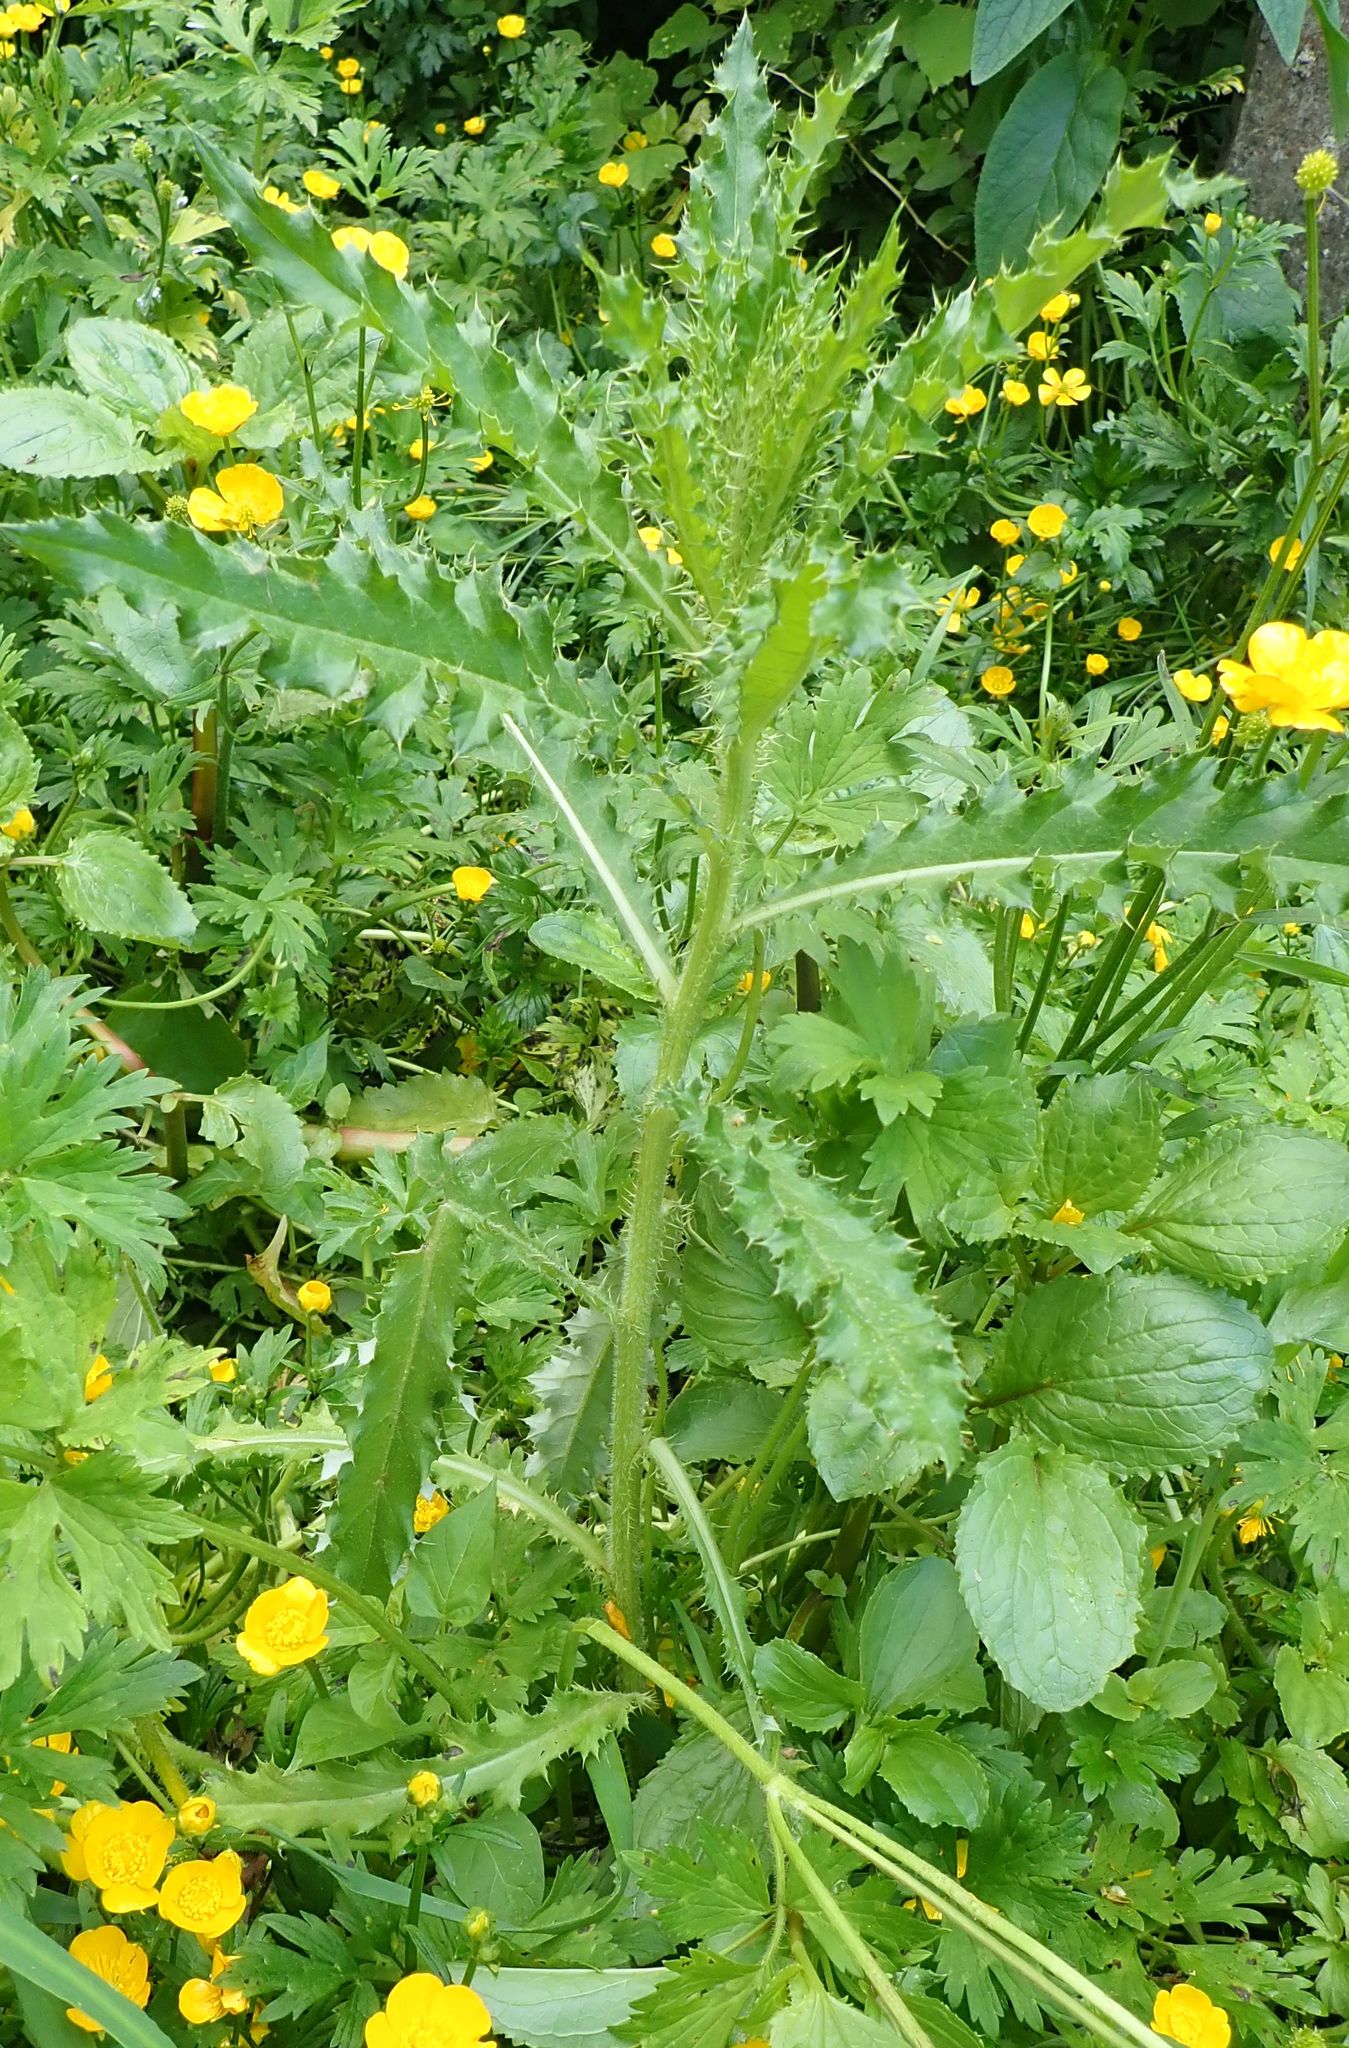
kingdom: Plantae
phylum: Tracheophyta
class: Magnoliopsida
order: Asterales
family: Asteraceae
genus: Cirsium
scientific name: Cirsium arvense
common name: Creeping thistle
